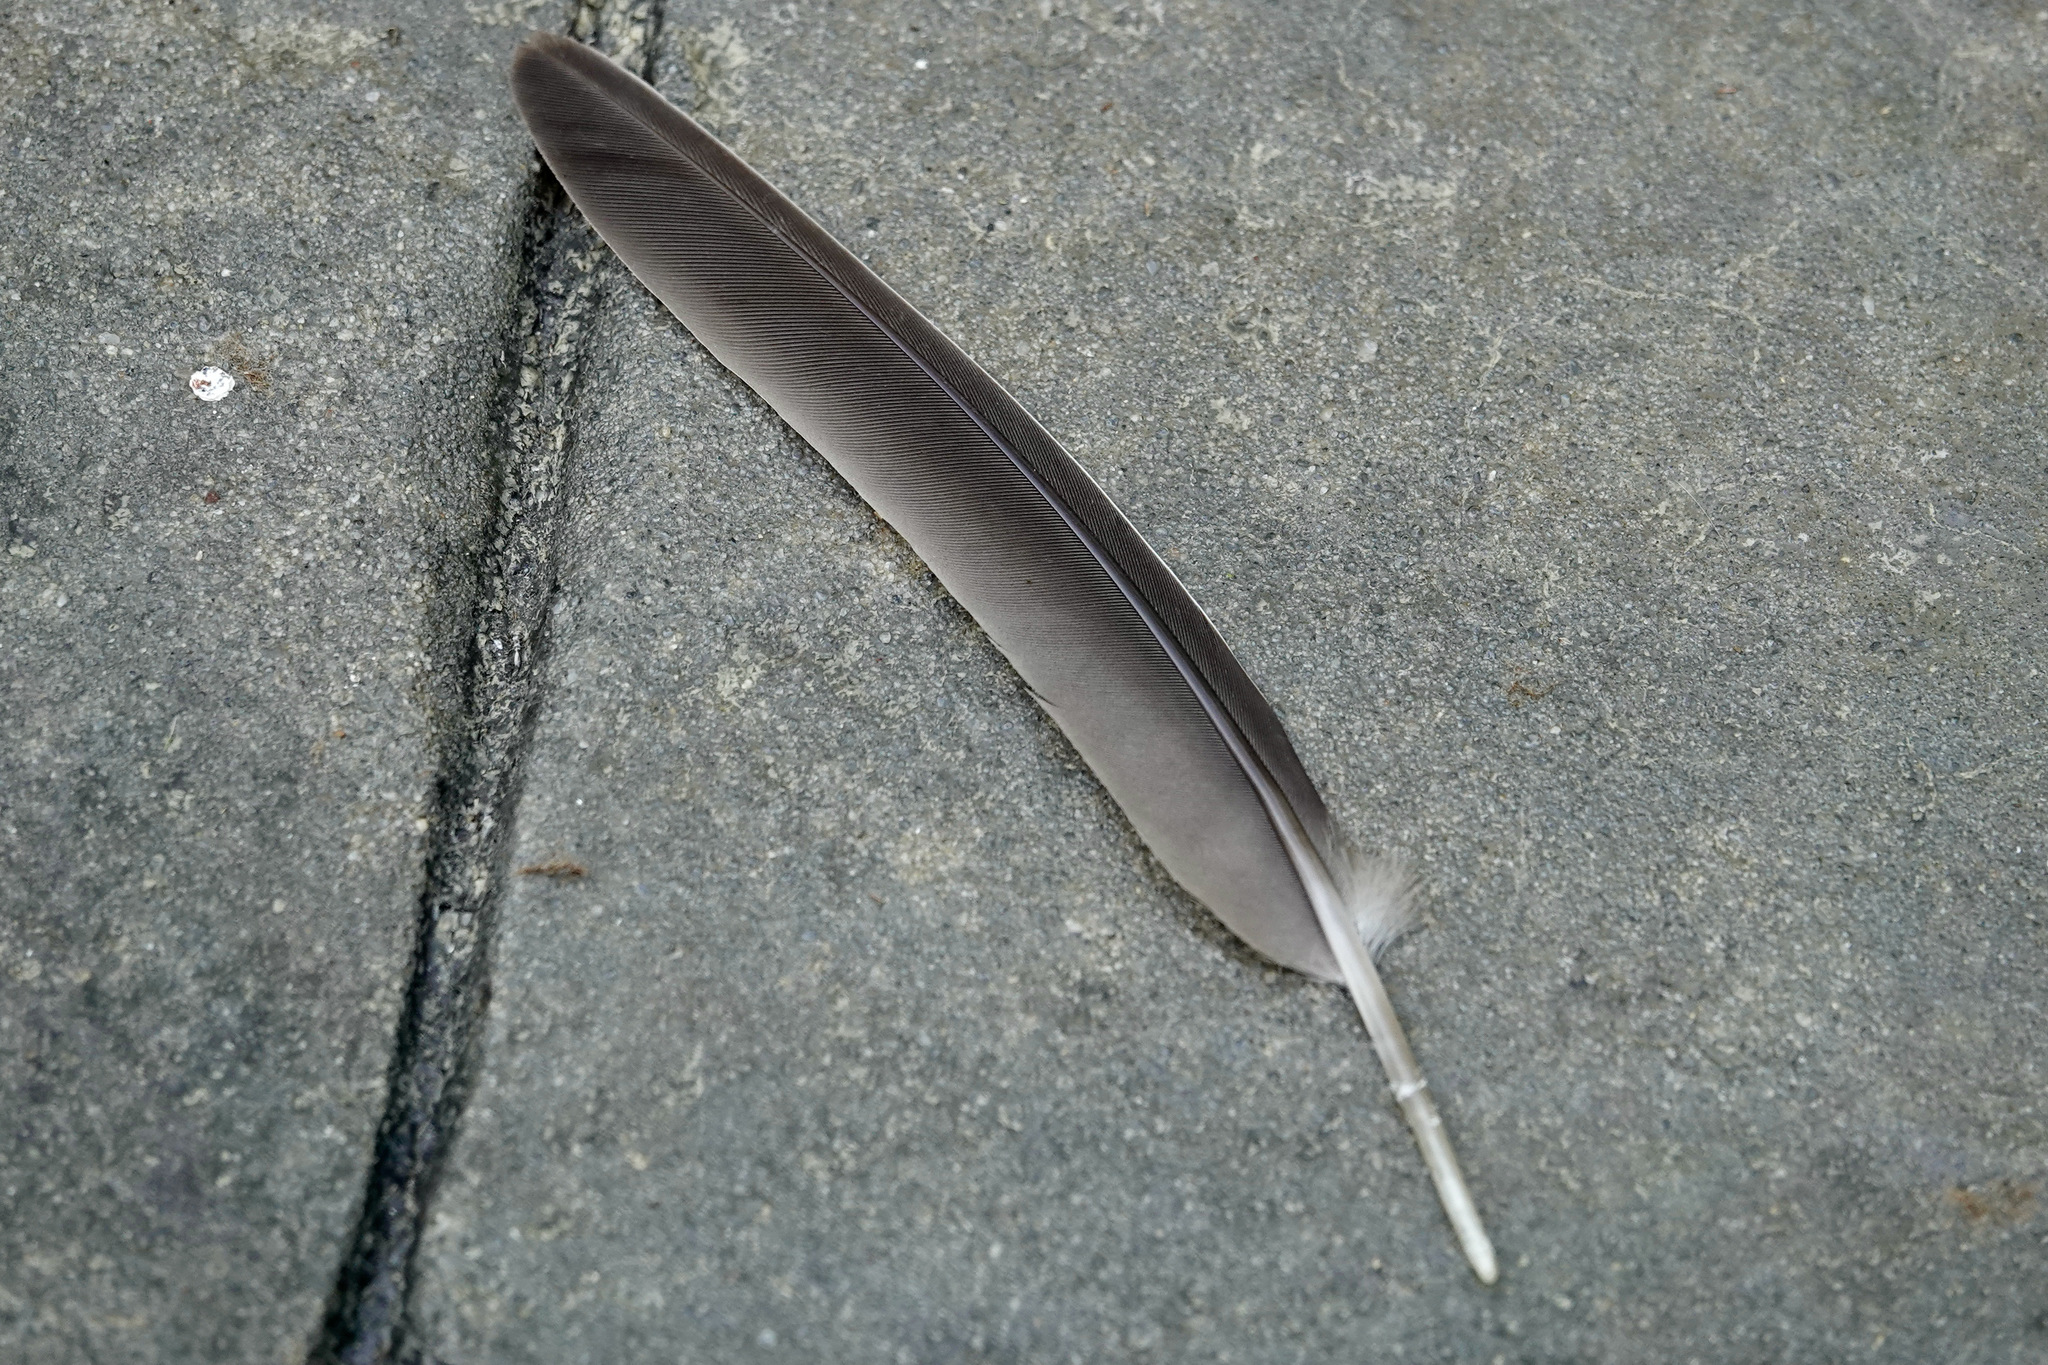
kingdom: Animalia
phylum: Chordata
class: Aves
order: Columbiformes
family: Columbidae
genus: Zenaida
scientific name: Zenaida macroura
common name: Mourning dove
